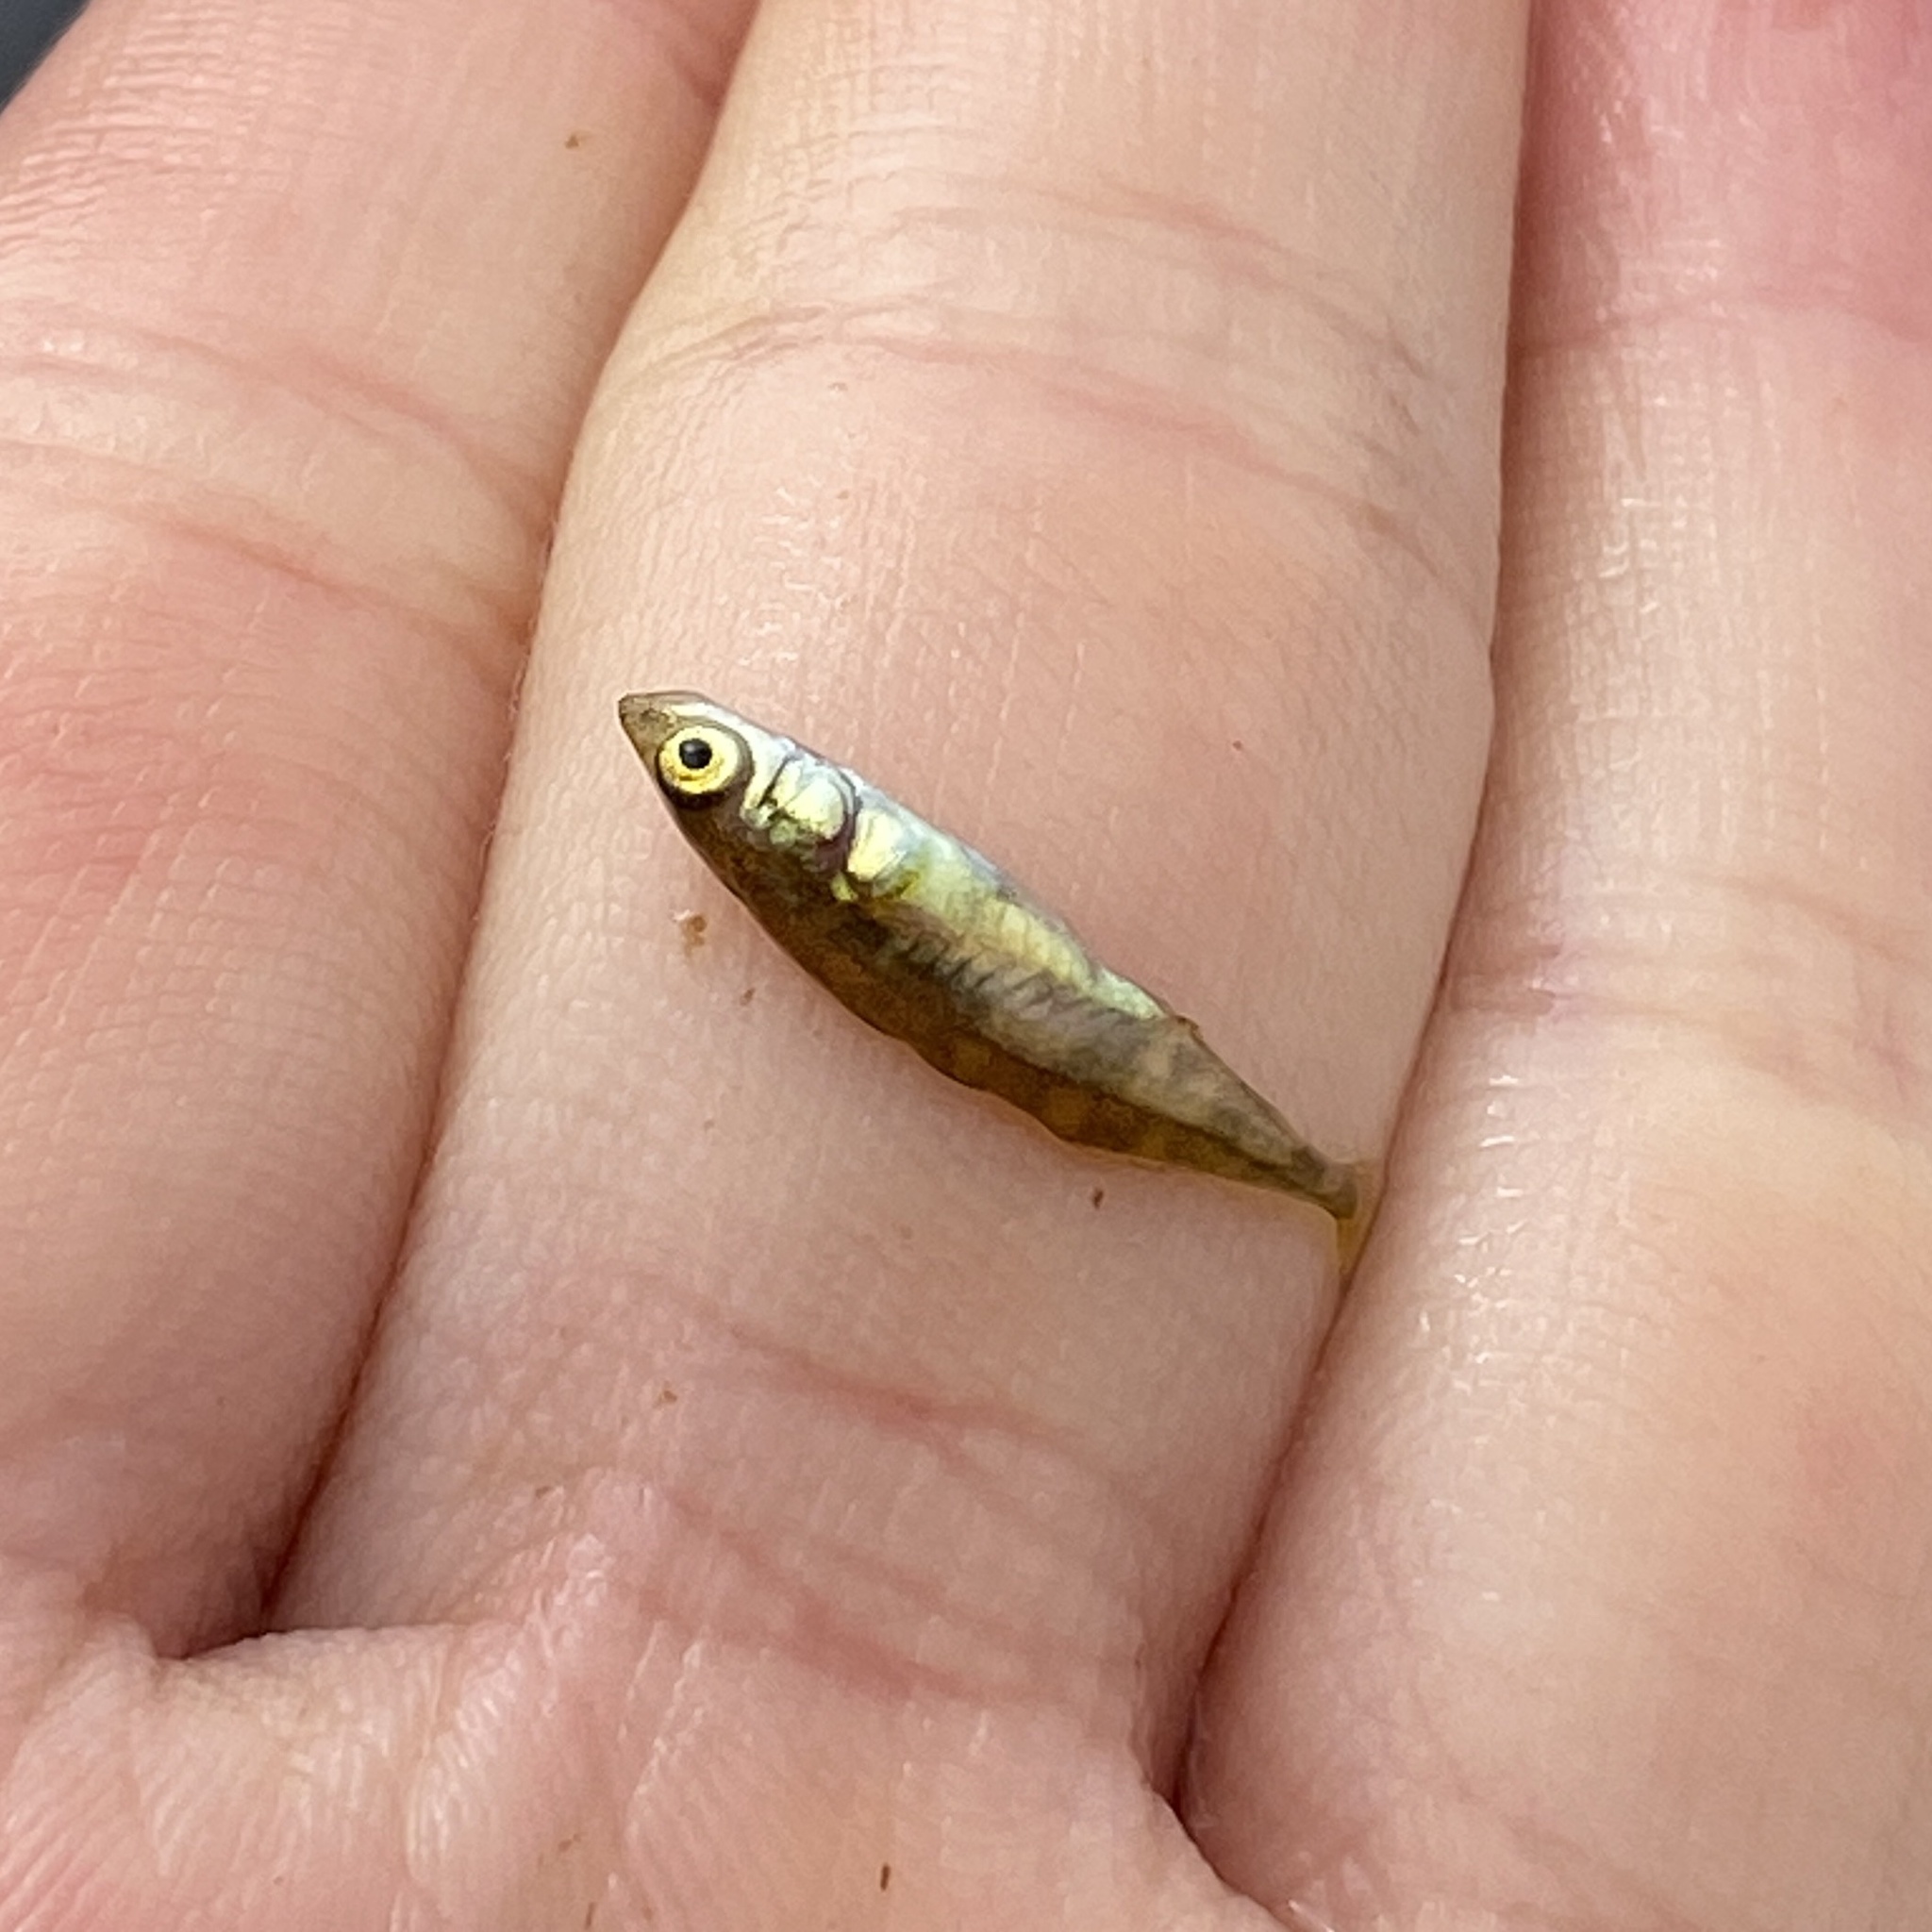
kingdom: Animalia
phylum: Chordata
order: Gasterosteiformes
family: Gasterosteidae
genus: Gasterosteus
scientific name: Gasterosteus aculeatus
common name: Three-spined stickleback
